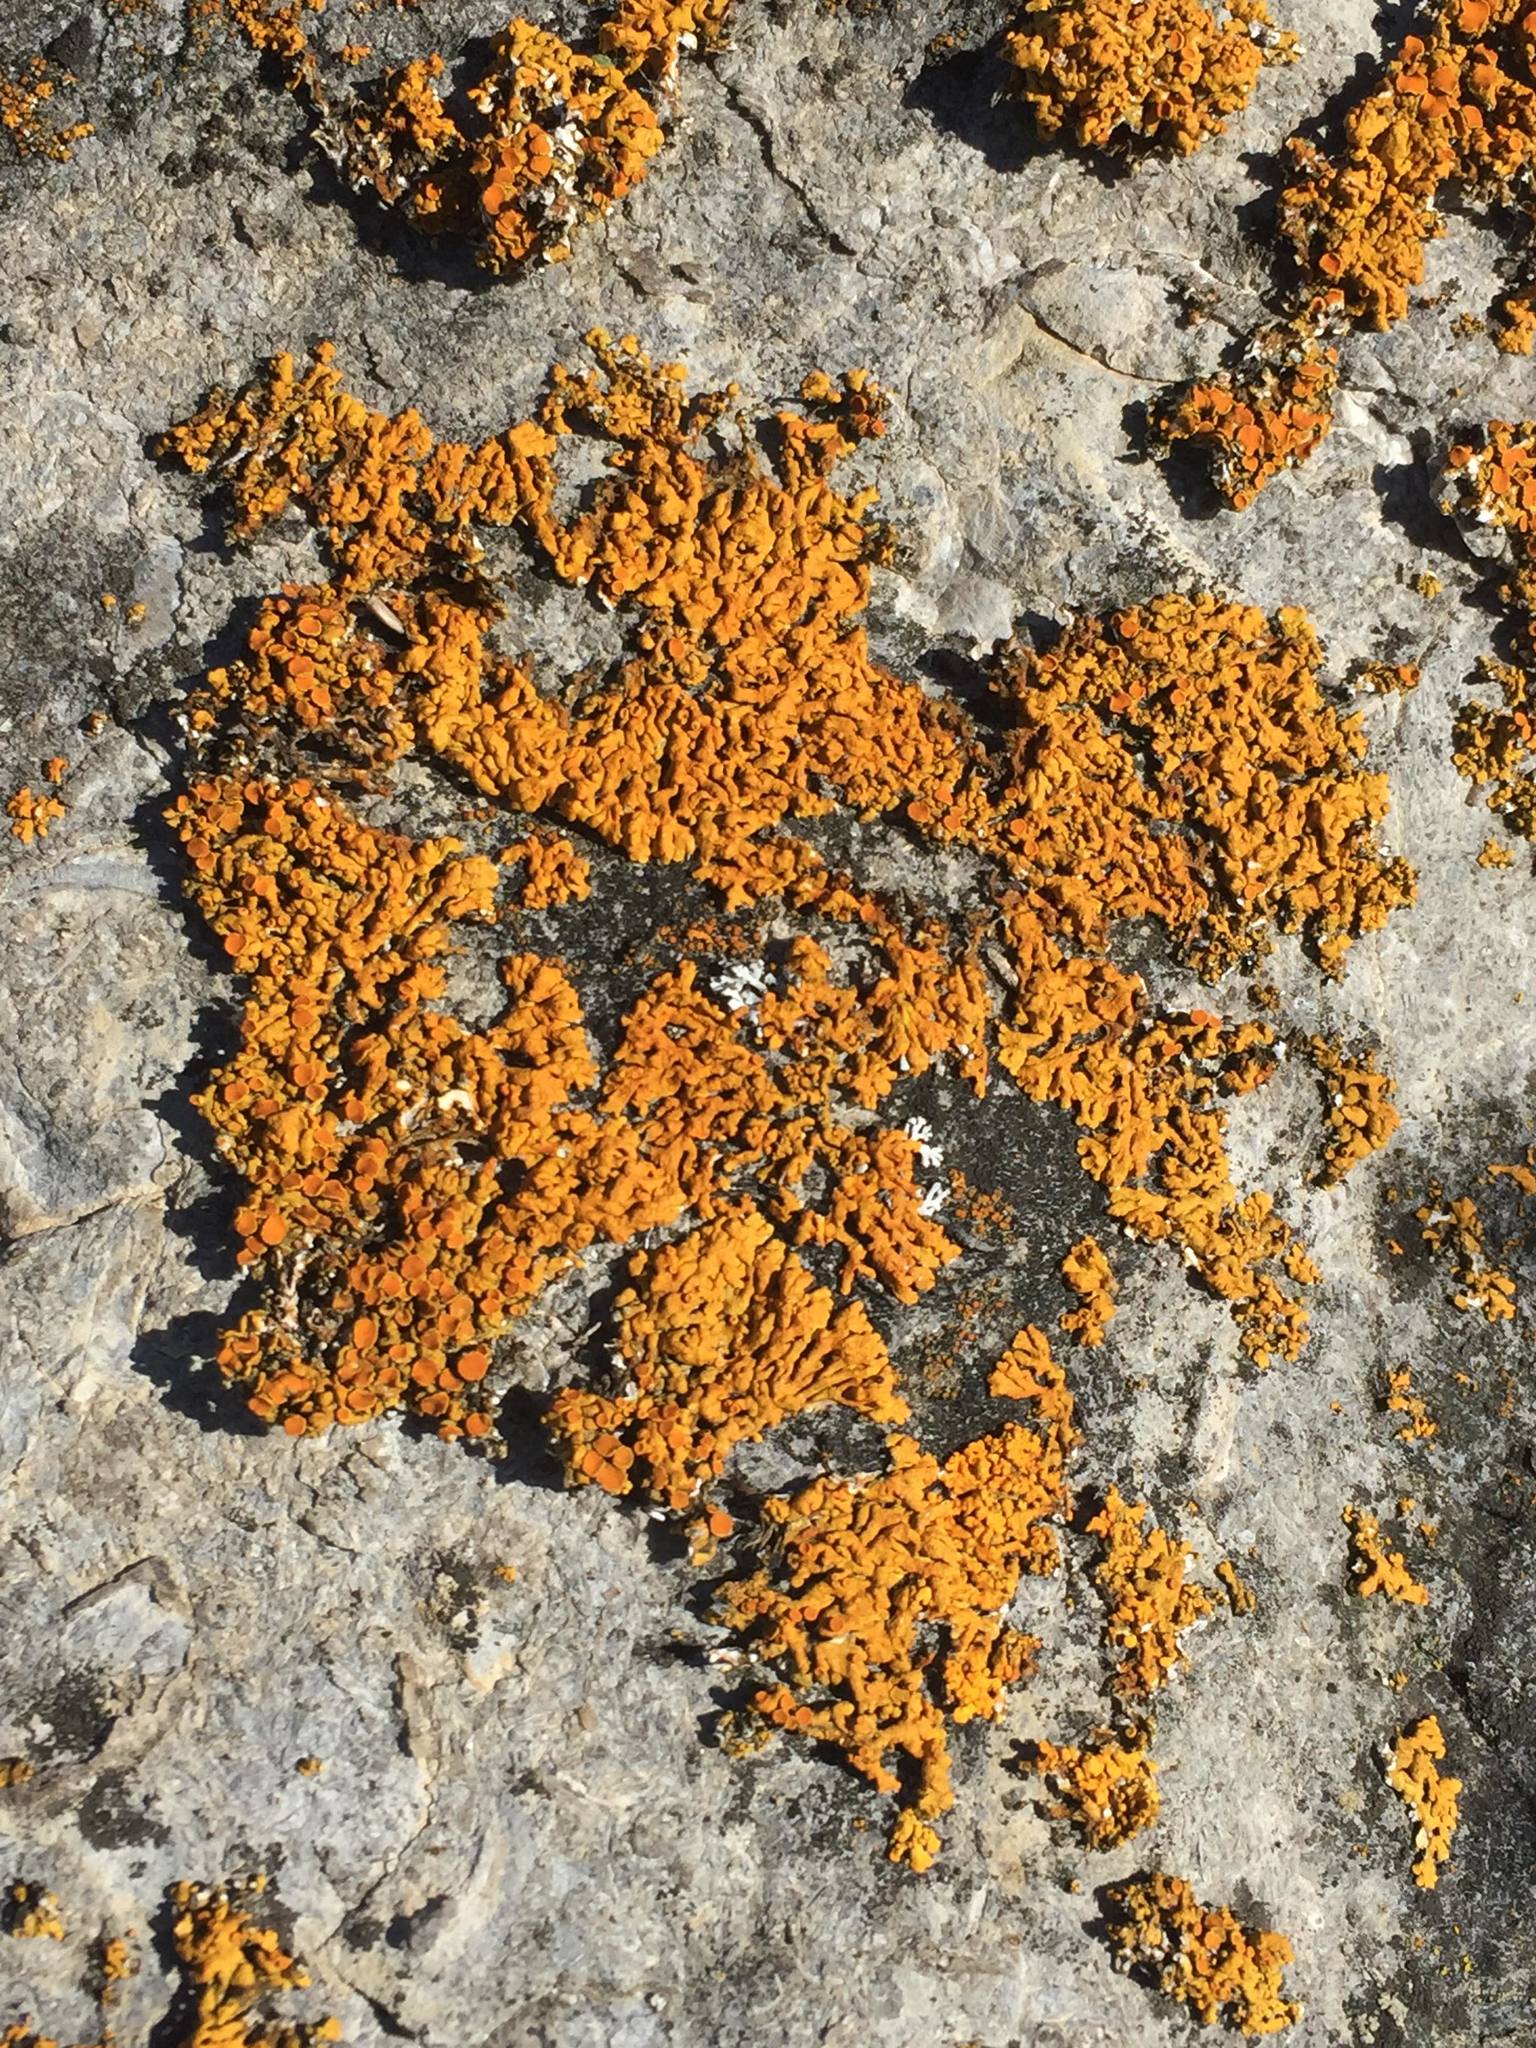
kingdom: Fungi
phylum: Ascomycota
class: Lecanoromycetes
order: Teloschistales
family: Teloschistaceae
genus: Xanthoria
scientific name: Xanthoria elegans
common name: Elegant sunburst lichen
